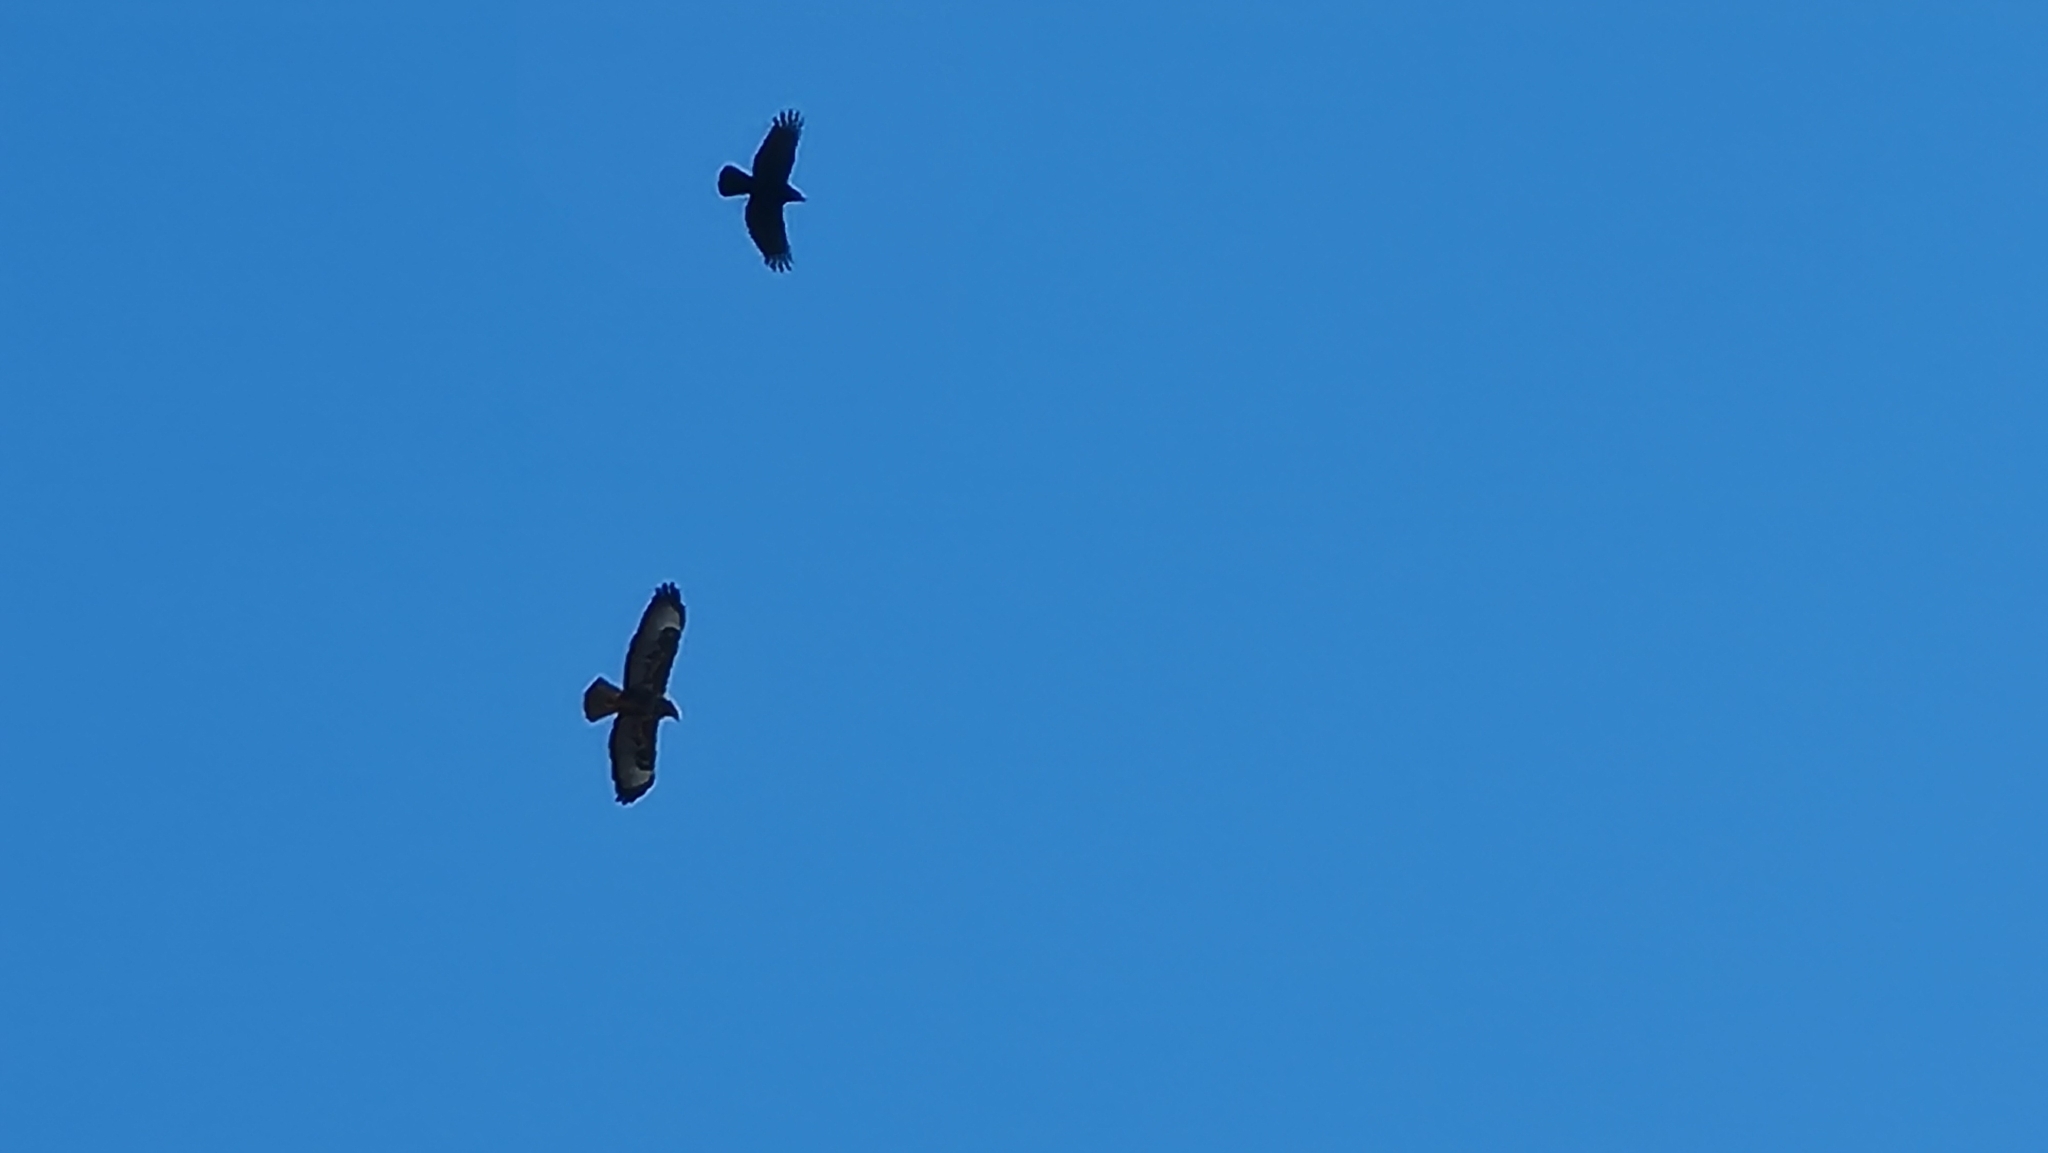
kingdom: Animalia
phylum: Chordata
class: Aves
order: Accipitriformes
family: Accipitridae
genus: Buteo
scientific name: Buteo buteo
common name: Common buzzard
